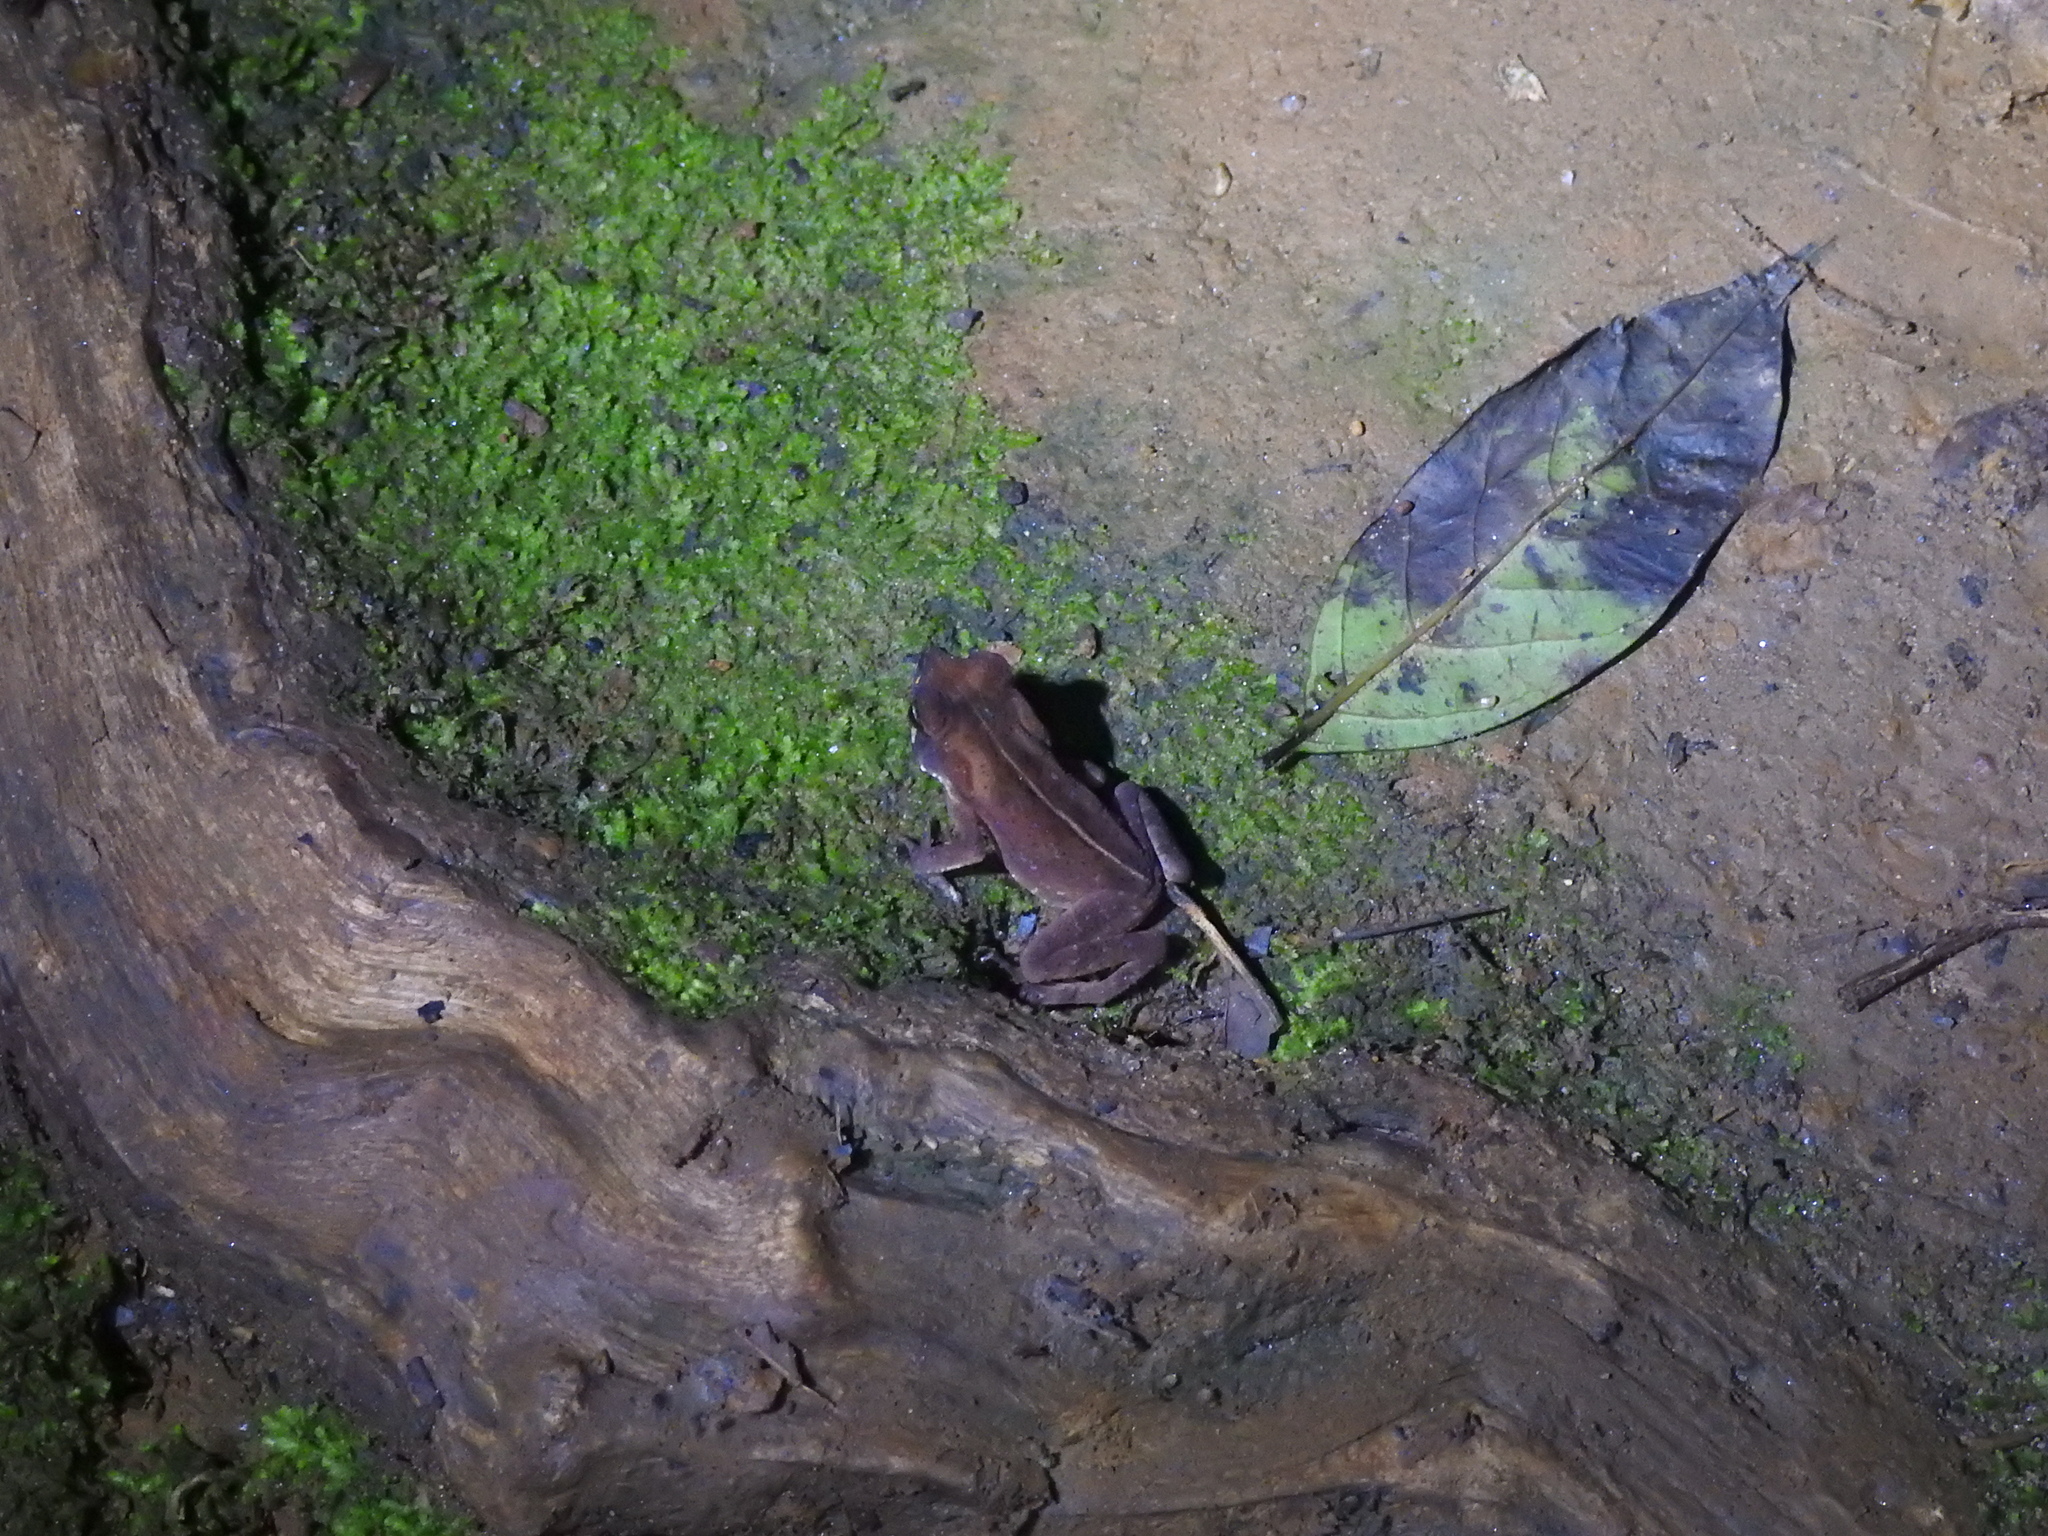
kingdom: Animalia
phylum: Chordata
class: Amphibia
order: Anura
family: Bufonidae
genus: Rhinella
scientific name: Rhinella ornata
